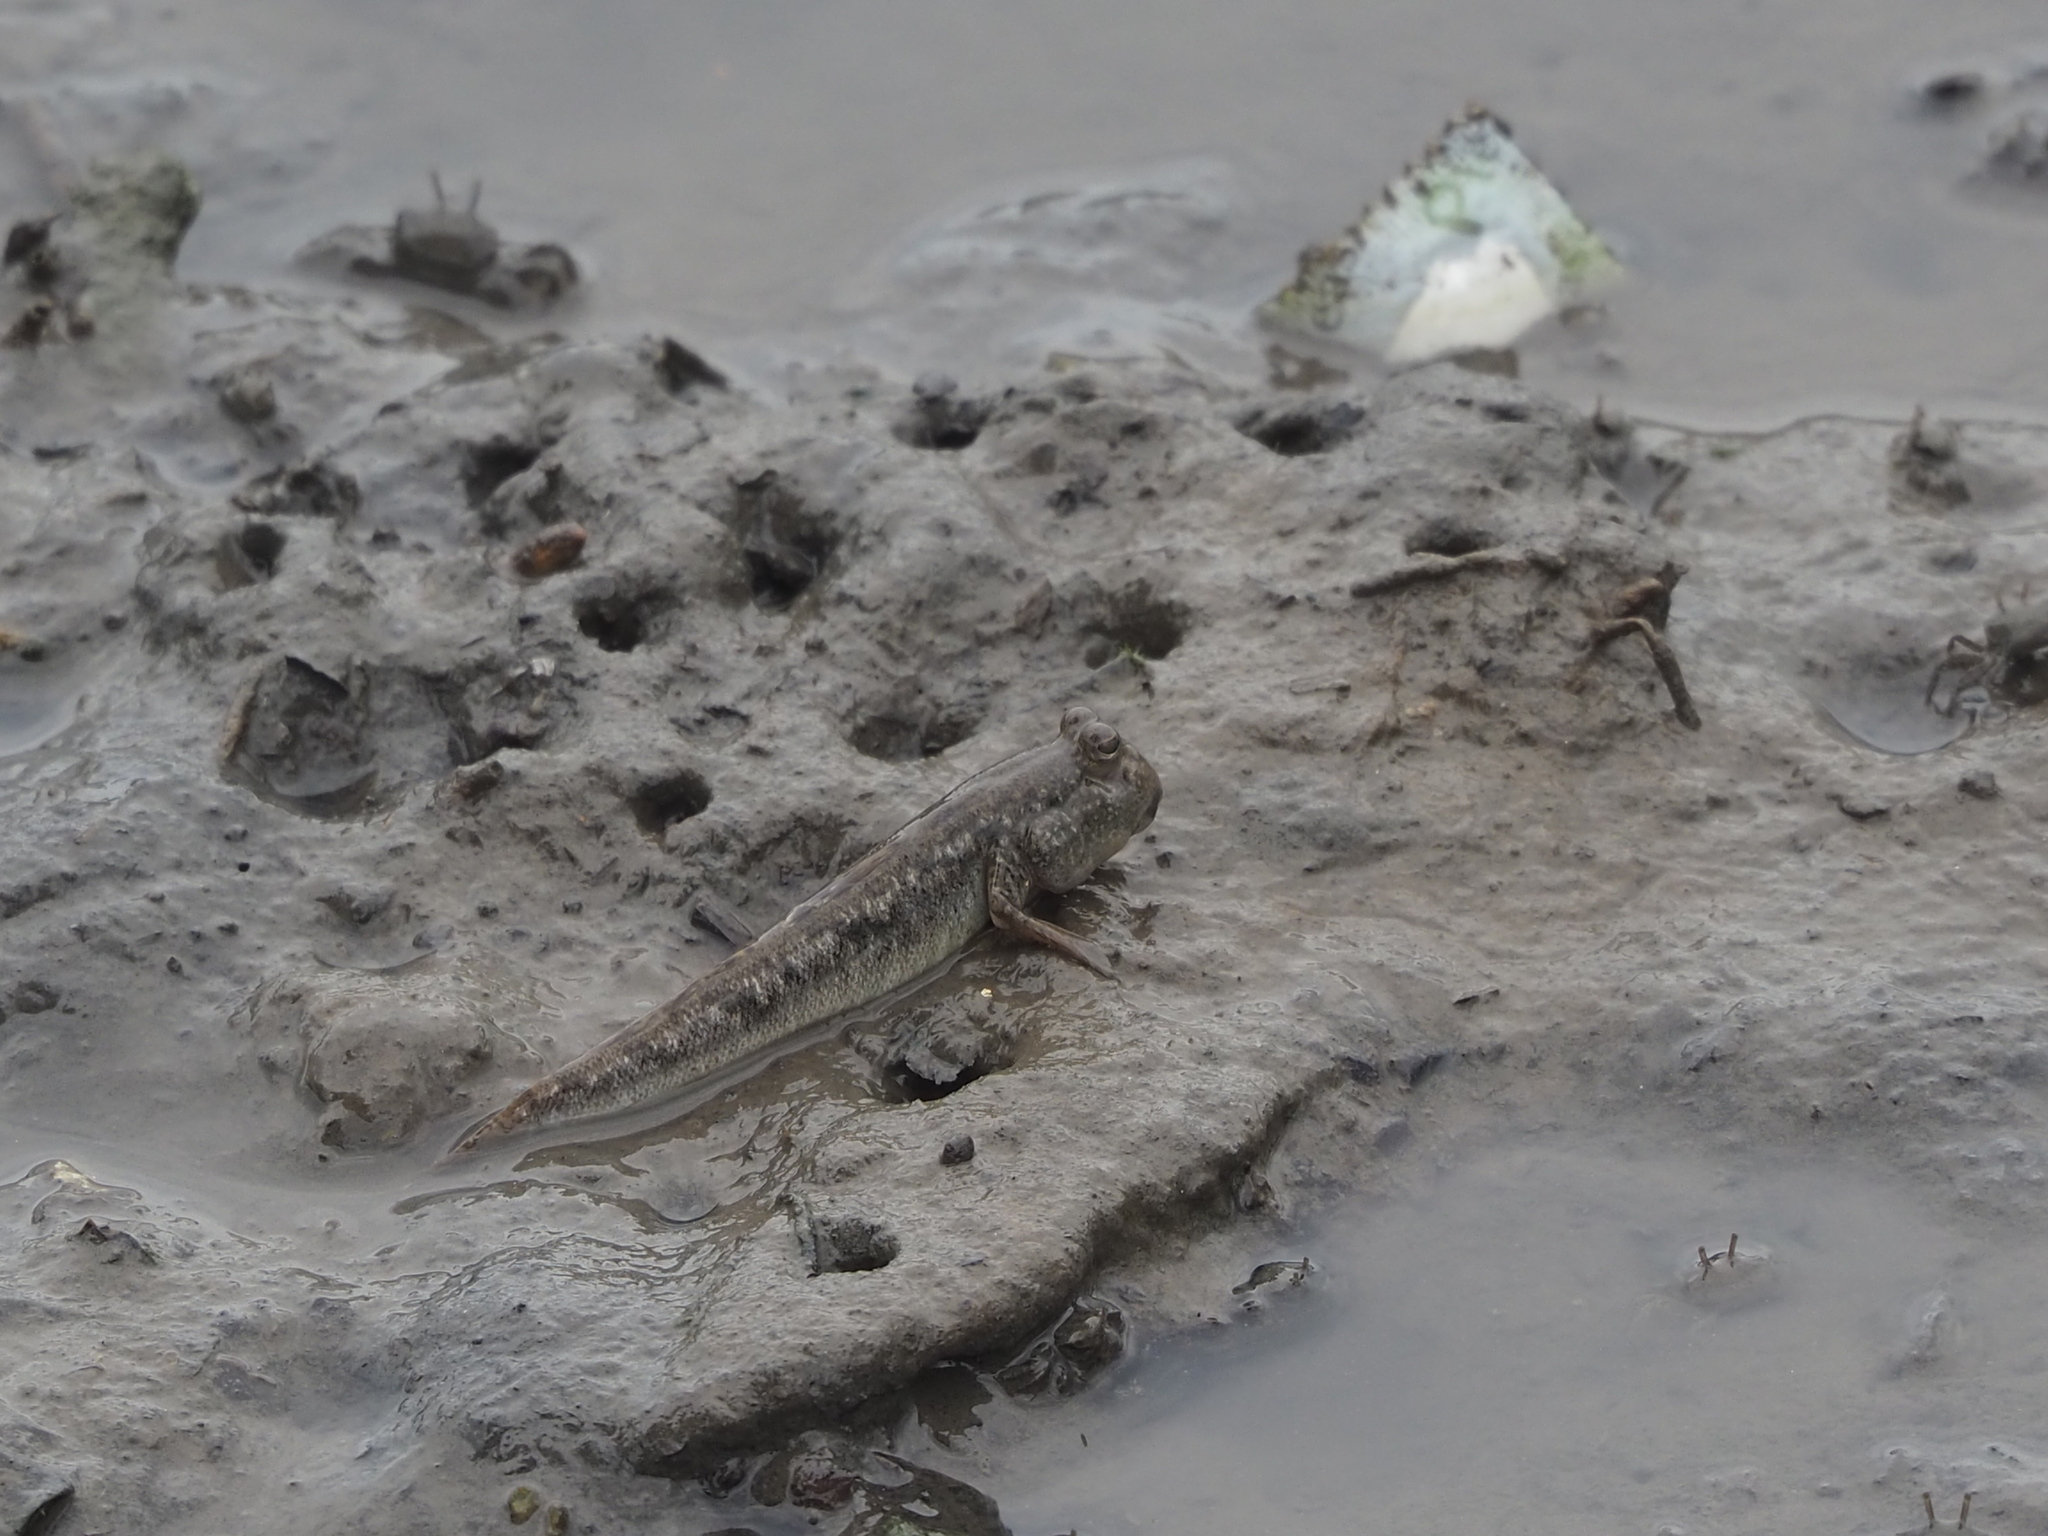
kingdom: Animalia
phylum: Chordata
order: Perciformes
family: Gobiidae
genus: Periophthalmus
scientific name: Periophthalmus modestus
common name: Black goby
